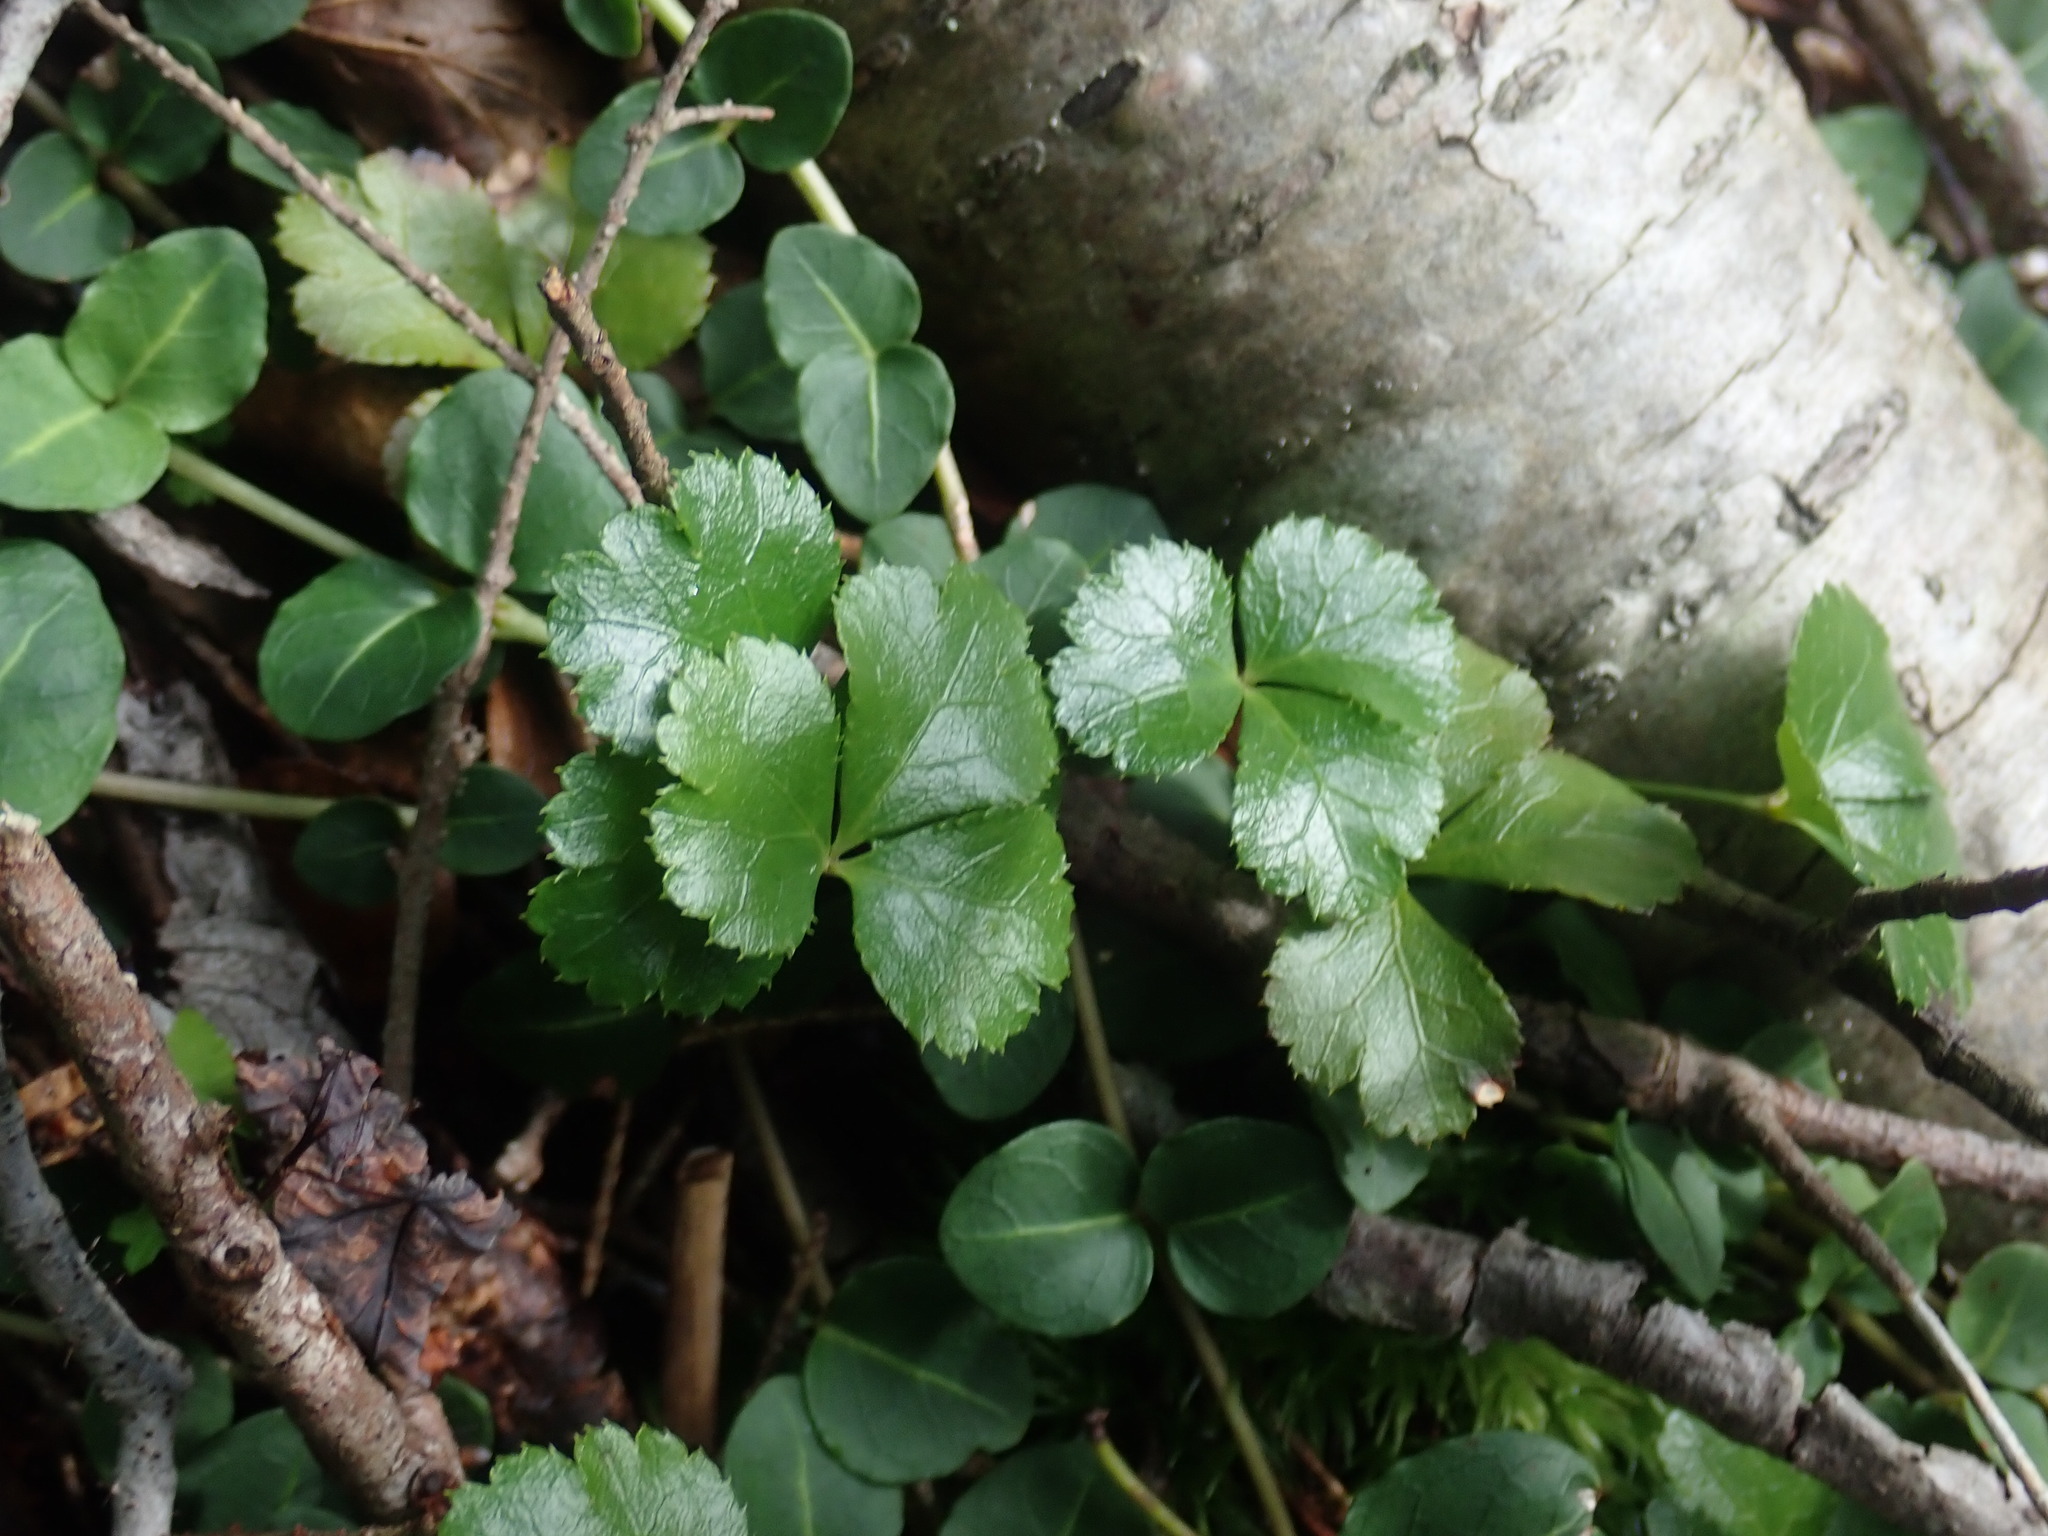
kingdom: Plantae
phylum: Tracheophyta
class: Magnoliopsida
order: Ranunculales
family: Ranunculaceae
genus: Coptis
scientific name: Coptis trifolia
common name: Canker-root
